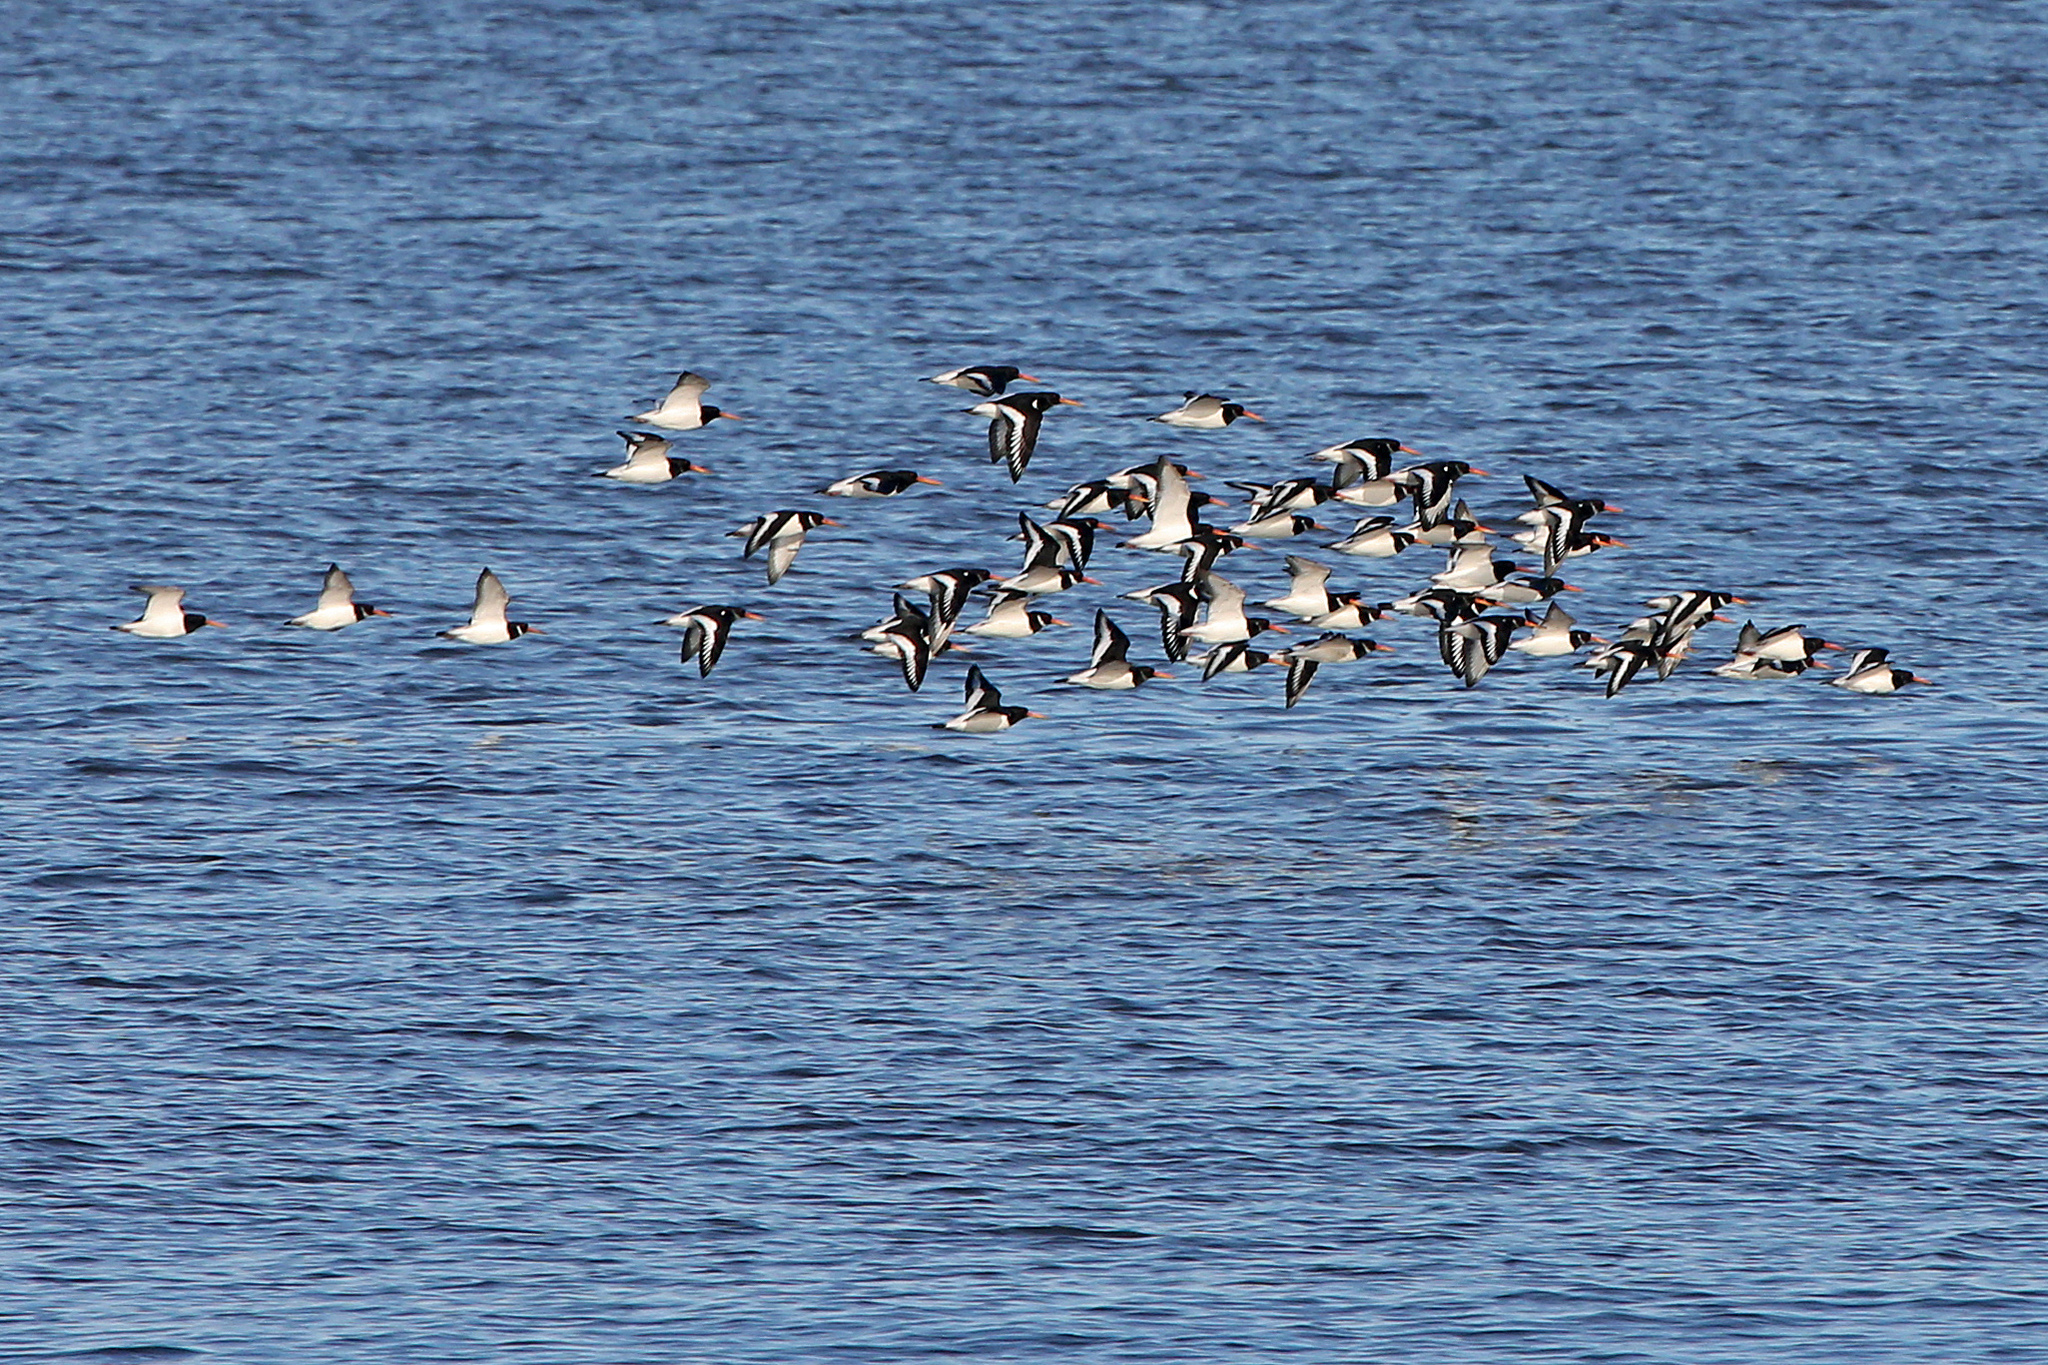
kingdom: Animalia
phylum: Chordata
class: Aves
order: Charadriiformes
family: Haematopodidae
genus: Haematopus
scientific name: Haematopus ostralegus
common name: Eurasian oystercatcher
